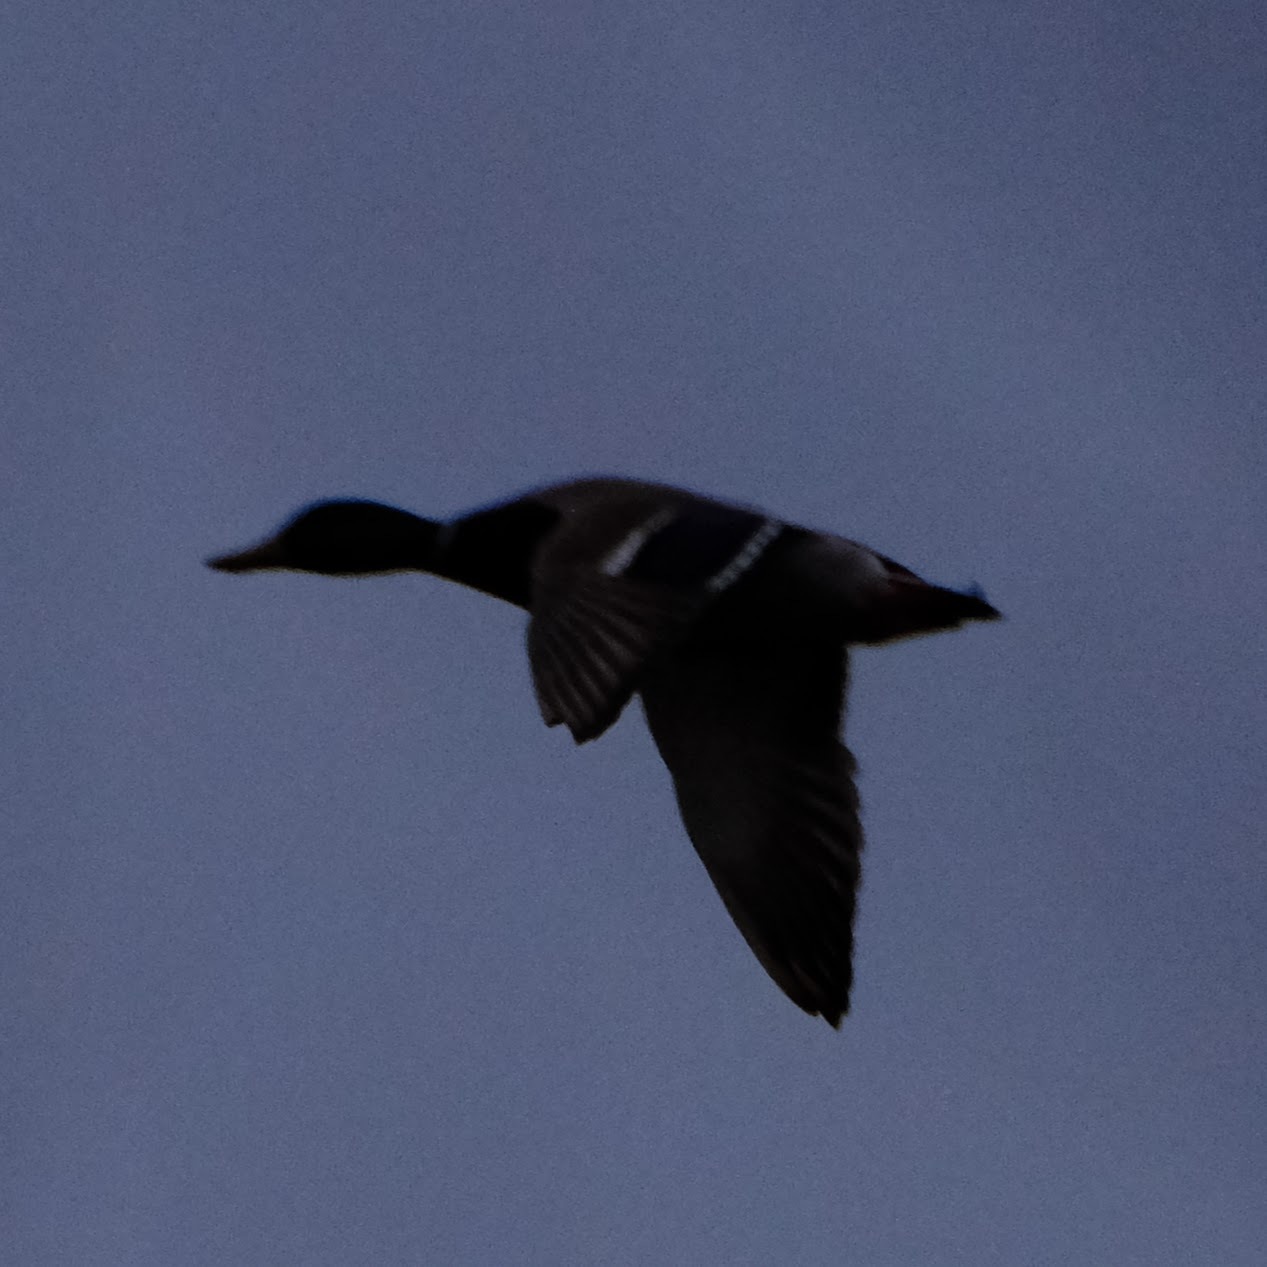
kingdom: Animalia
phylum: Chordata
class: Aves
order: Anseriformes
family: Anatidae
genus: Anas
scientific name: Anas platyrhynchos
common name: Mallard
